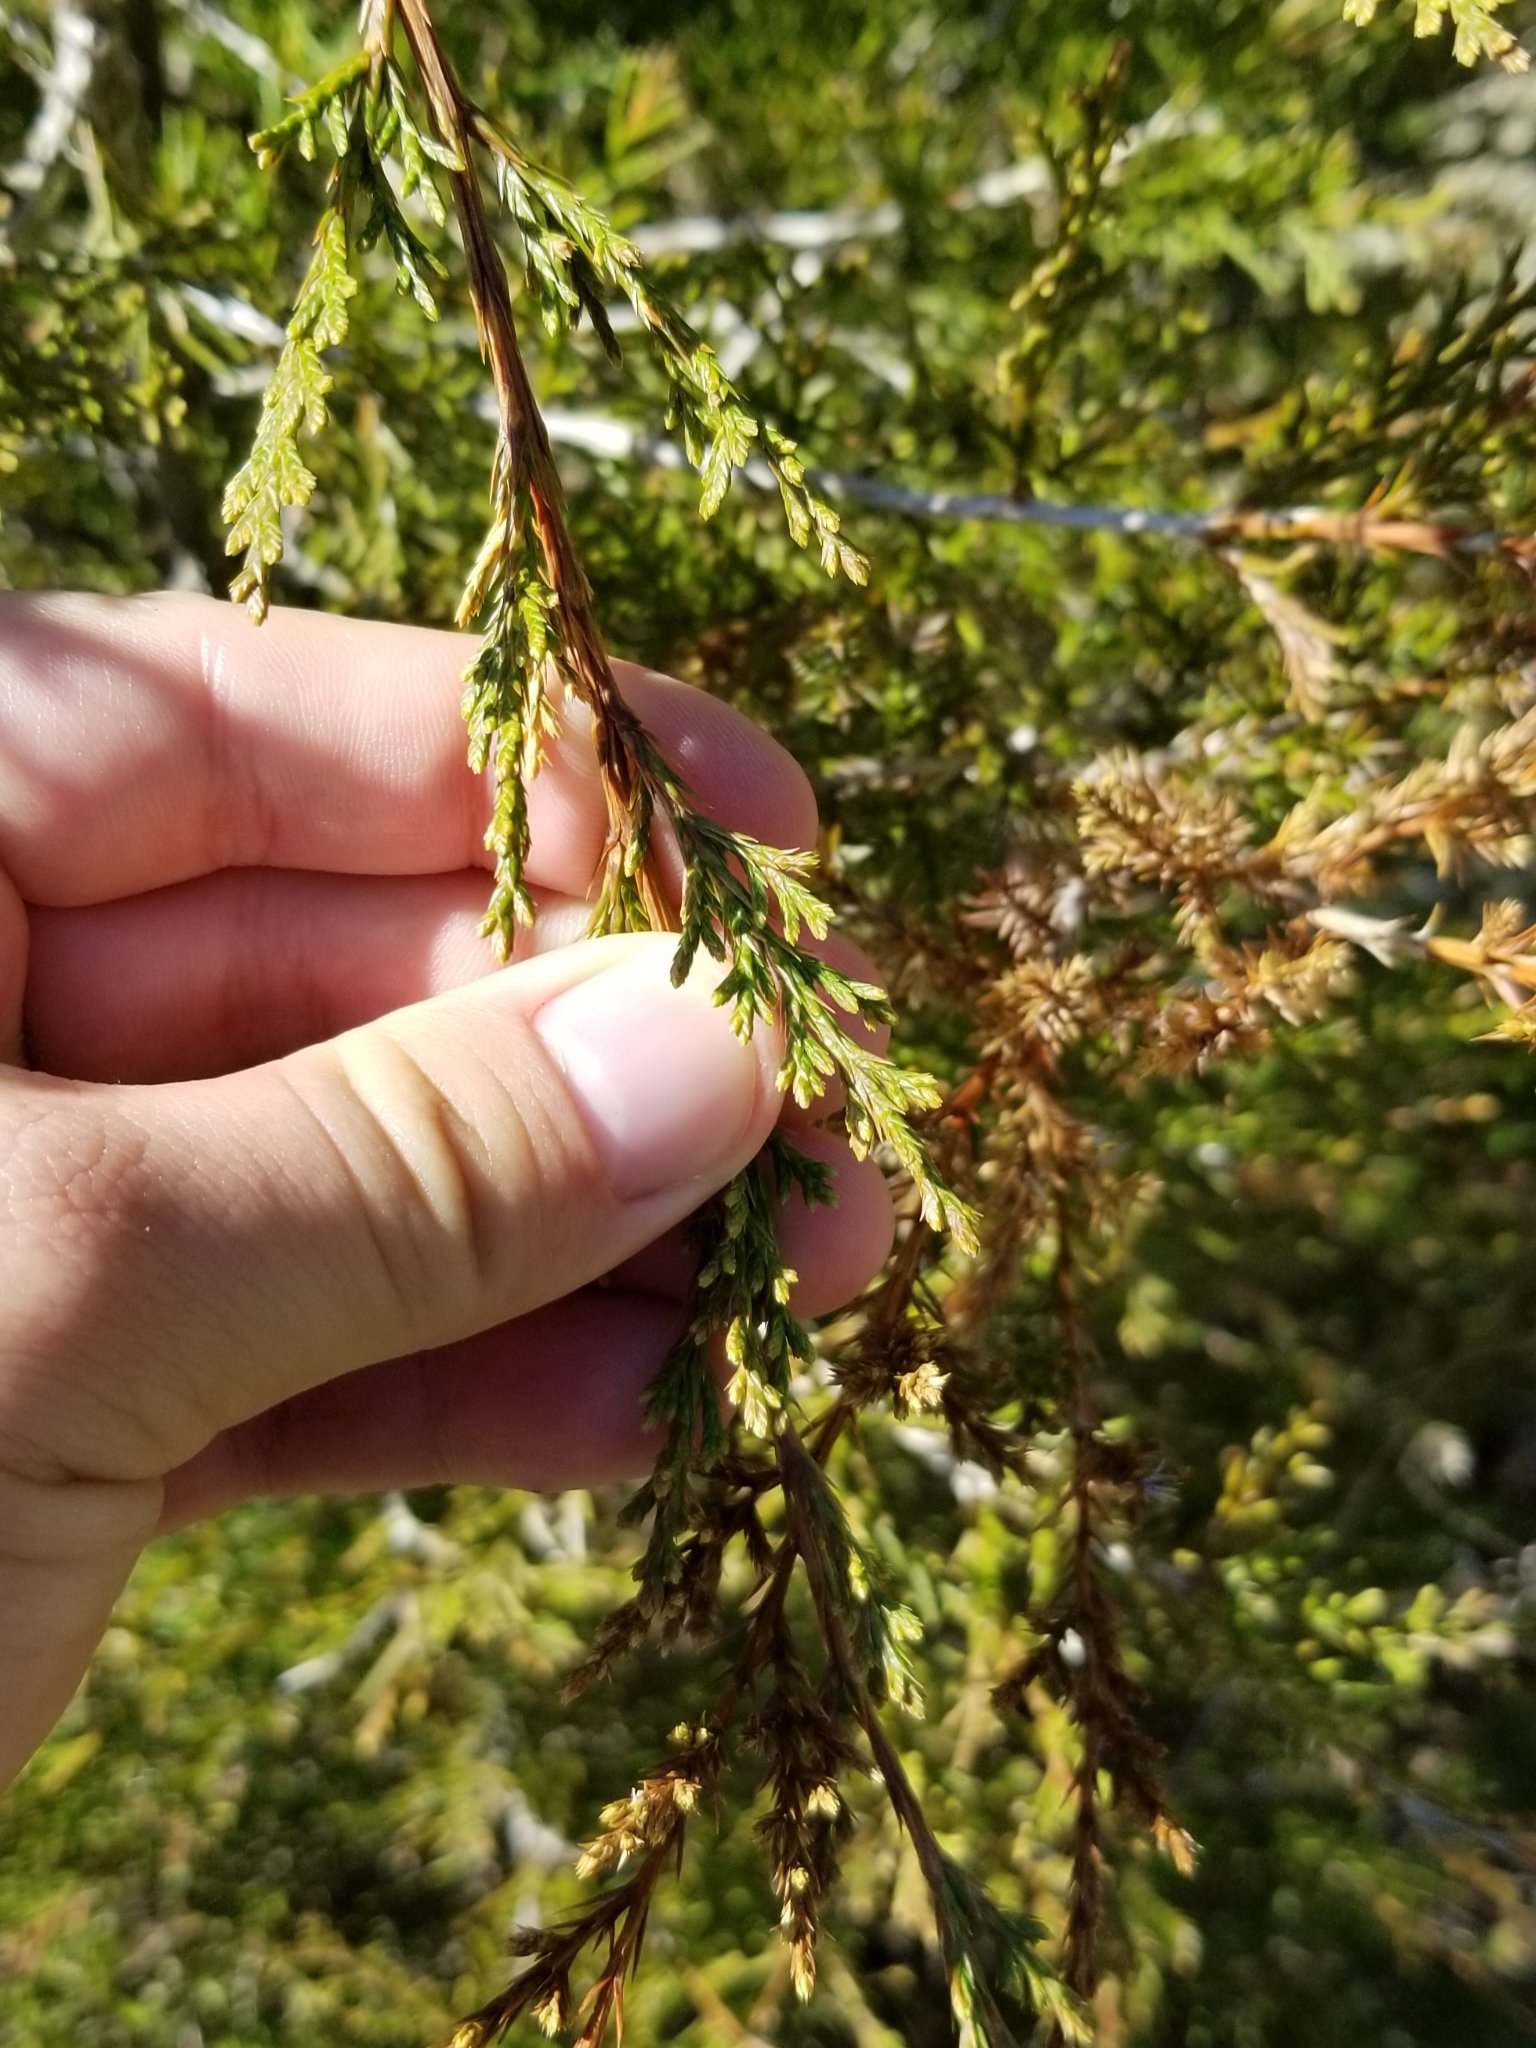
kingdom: Plantae
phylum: Tracheophyta
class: Pinopsida
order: Pinales
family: Cupressaceae
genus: Juniperus
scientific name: Juniperus virginiana
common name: Red juniper
